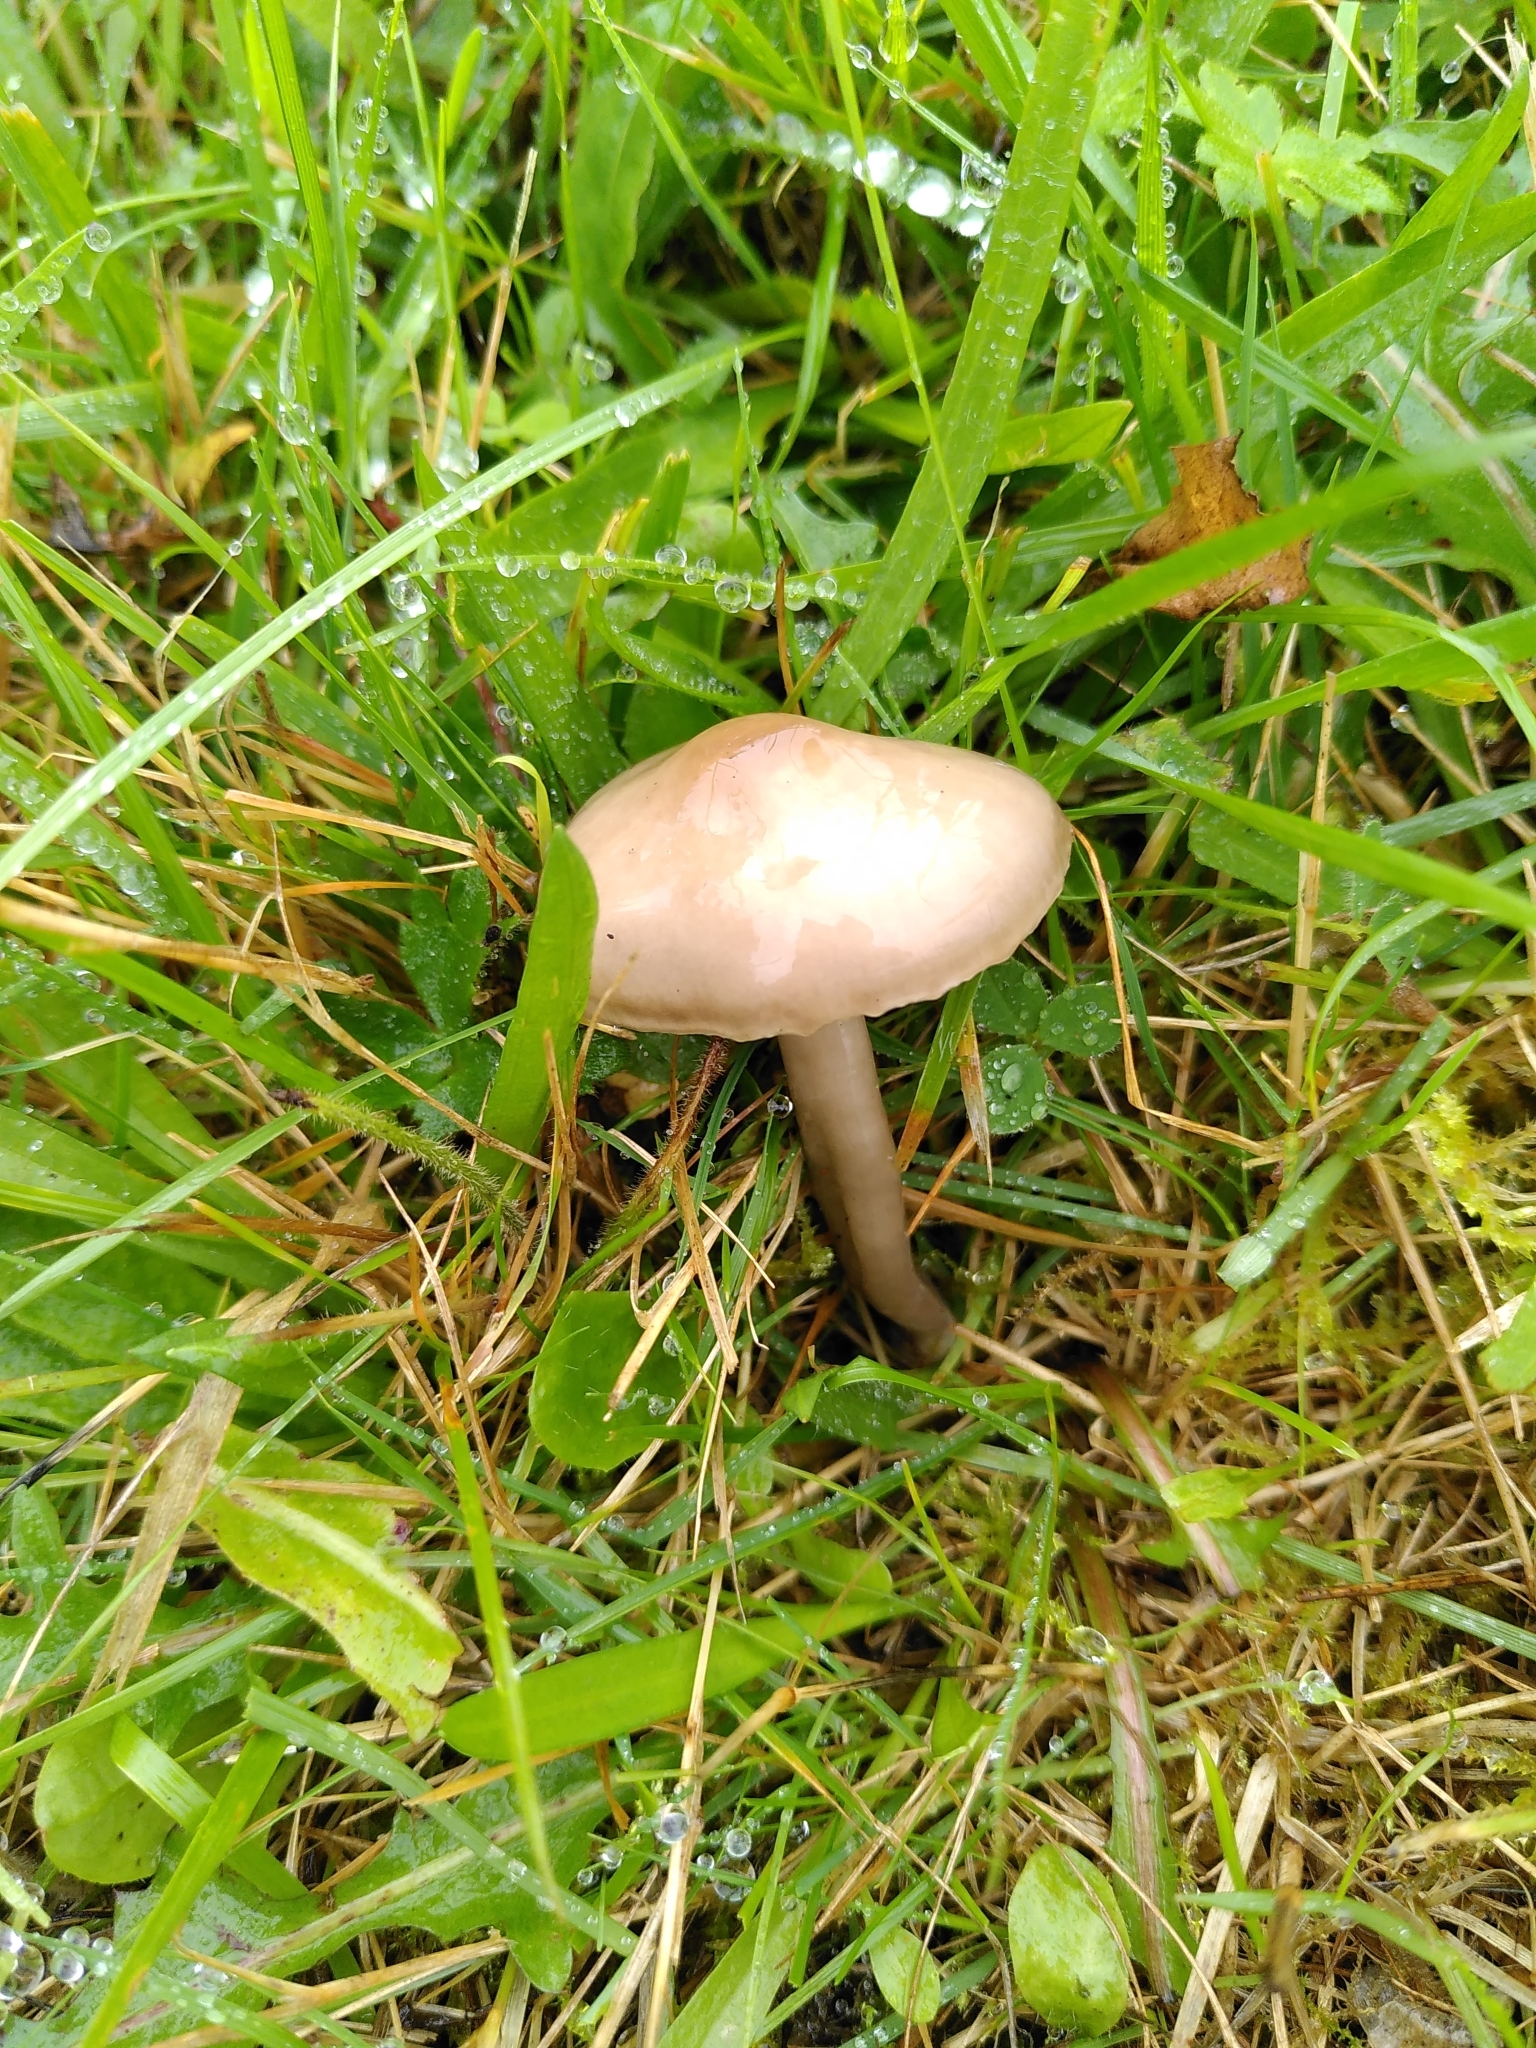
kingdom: Fungi
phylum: Basidiomycota
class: Agaricomycetes
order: Agaricales
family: Hygrophoraceae
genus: Gliophorus
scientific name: Gliophorus irrigatus
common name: Slimy waxcap
